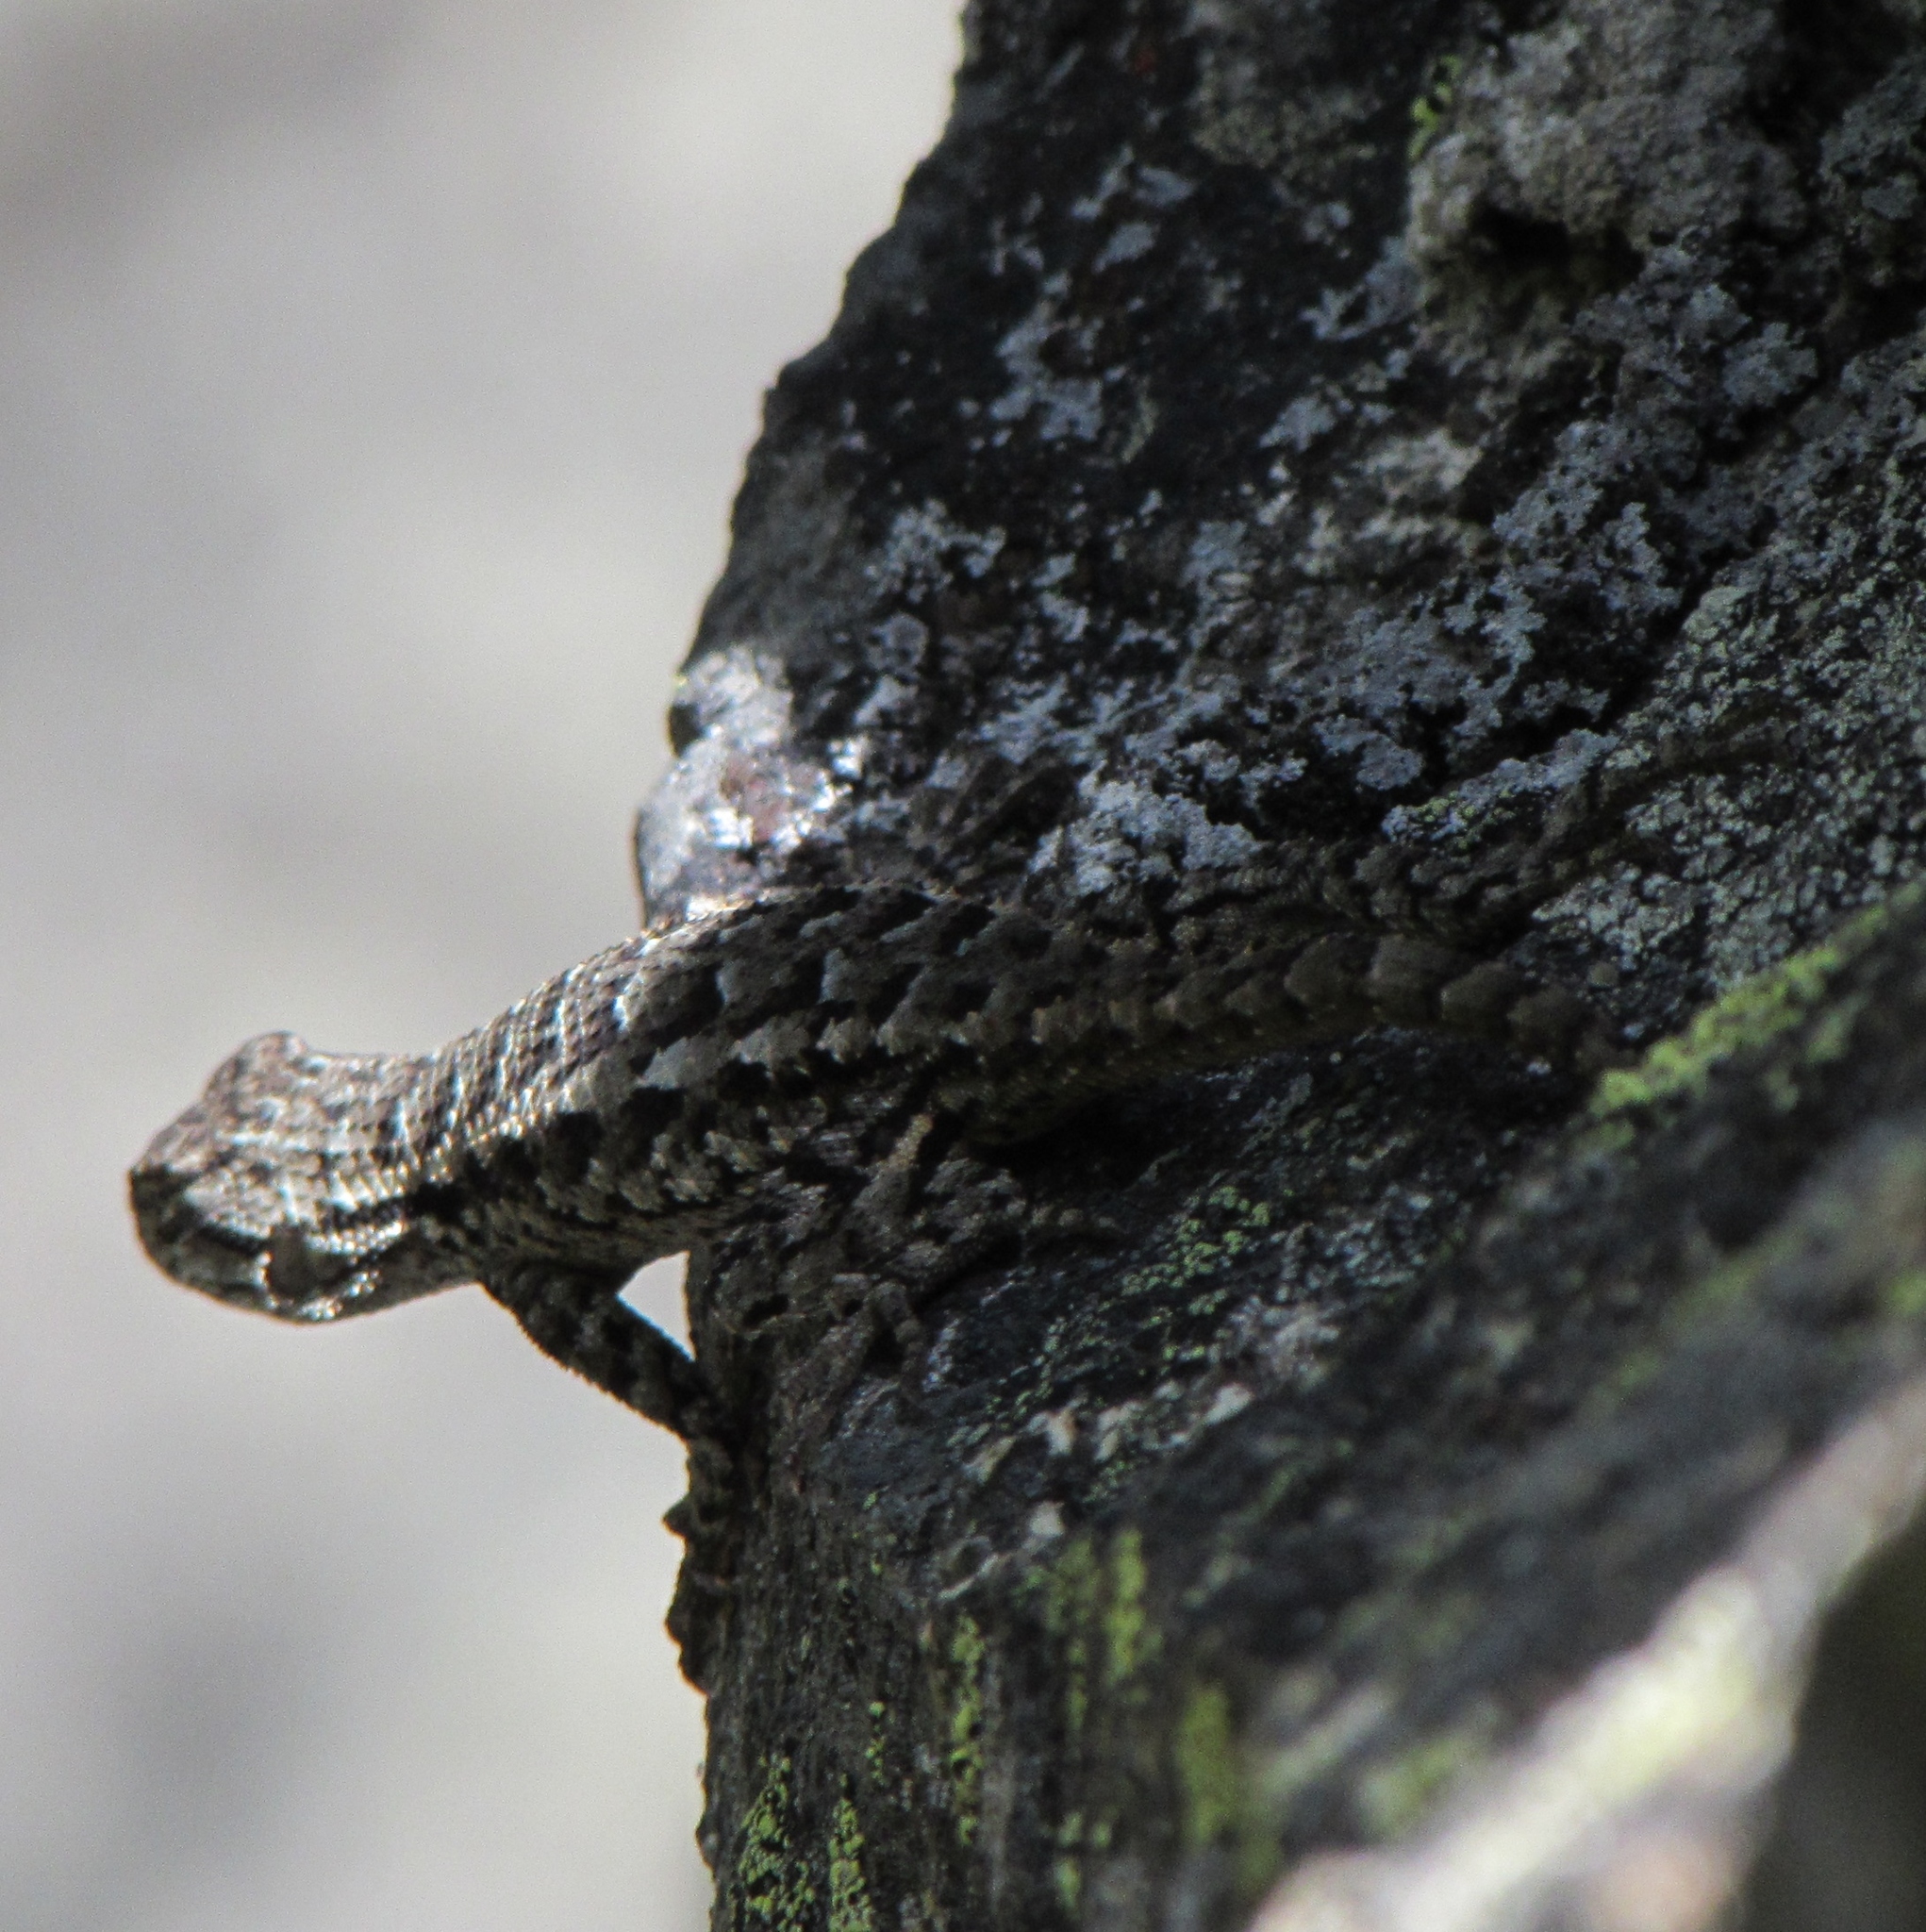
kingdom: Animalia
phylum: Chordata
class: Squamata
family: Phrynosomatidae
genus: Sceloporus
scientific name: Sceloporus occidentalis
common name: Western fence lizard
